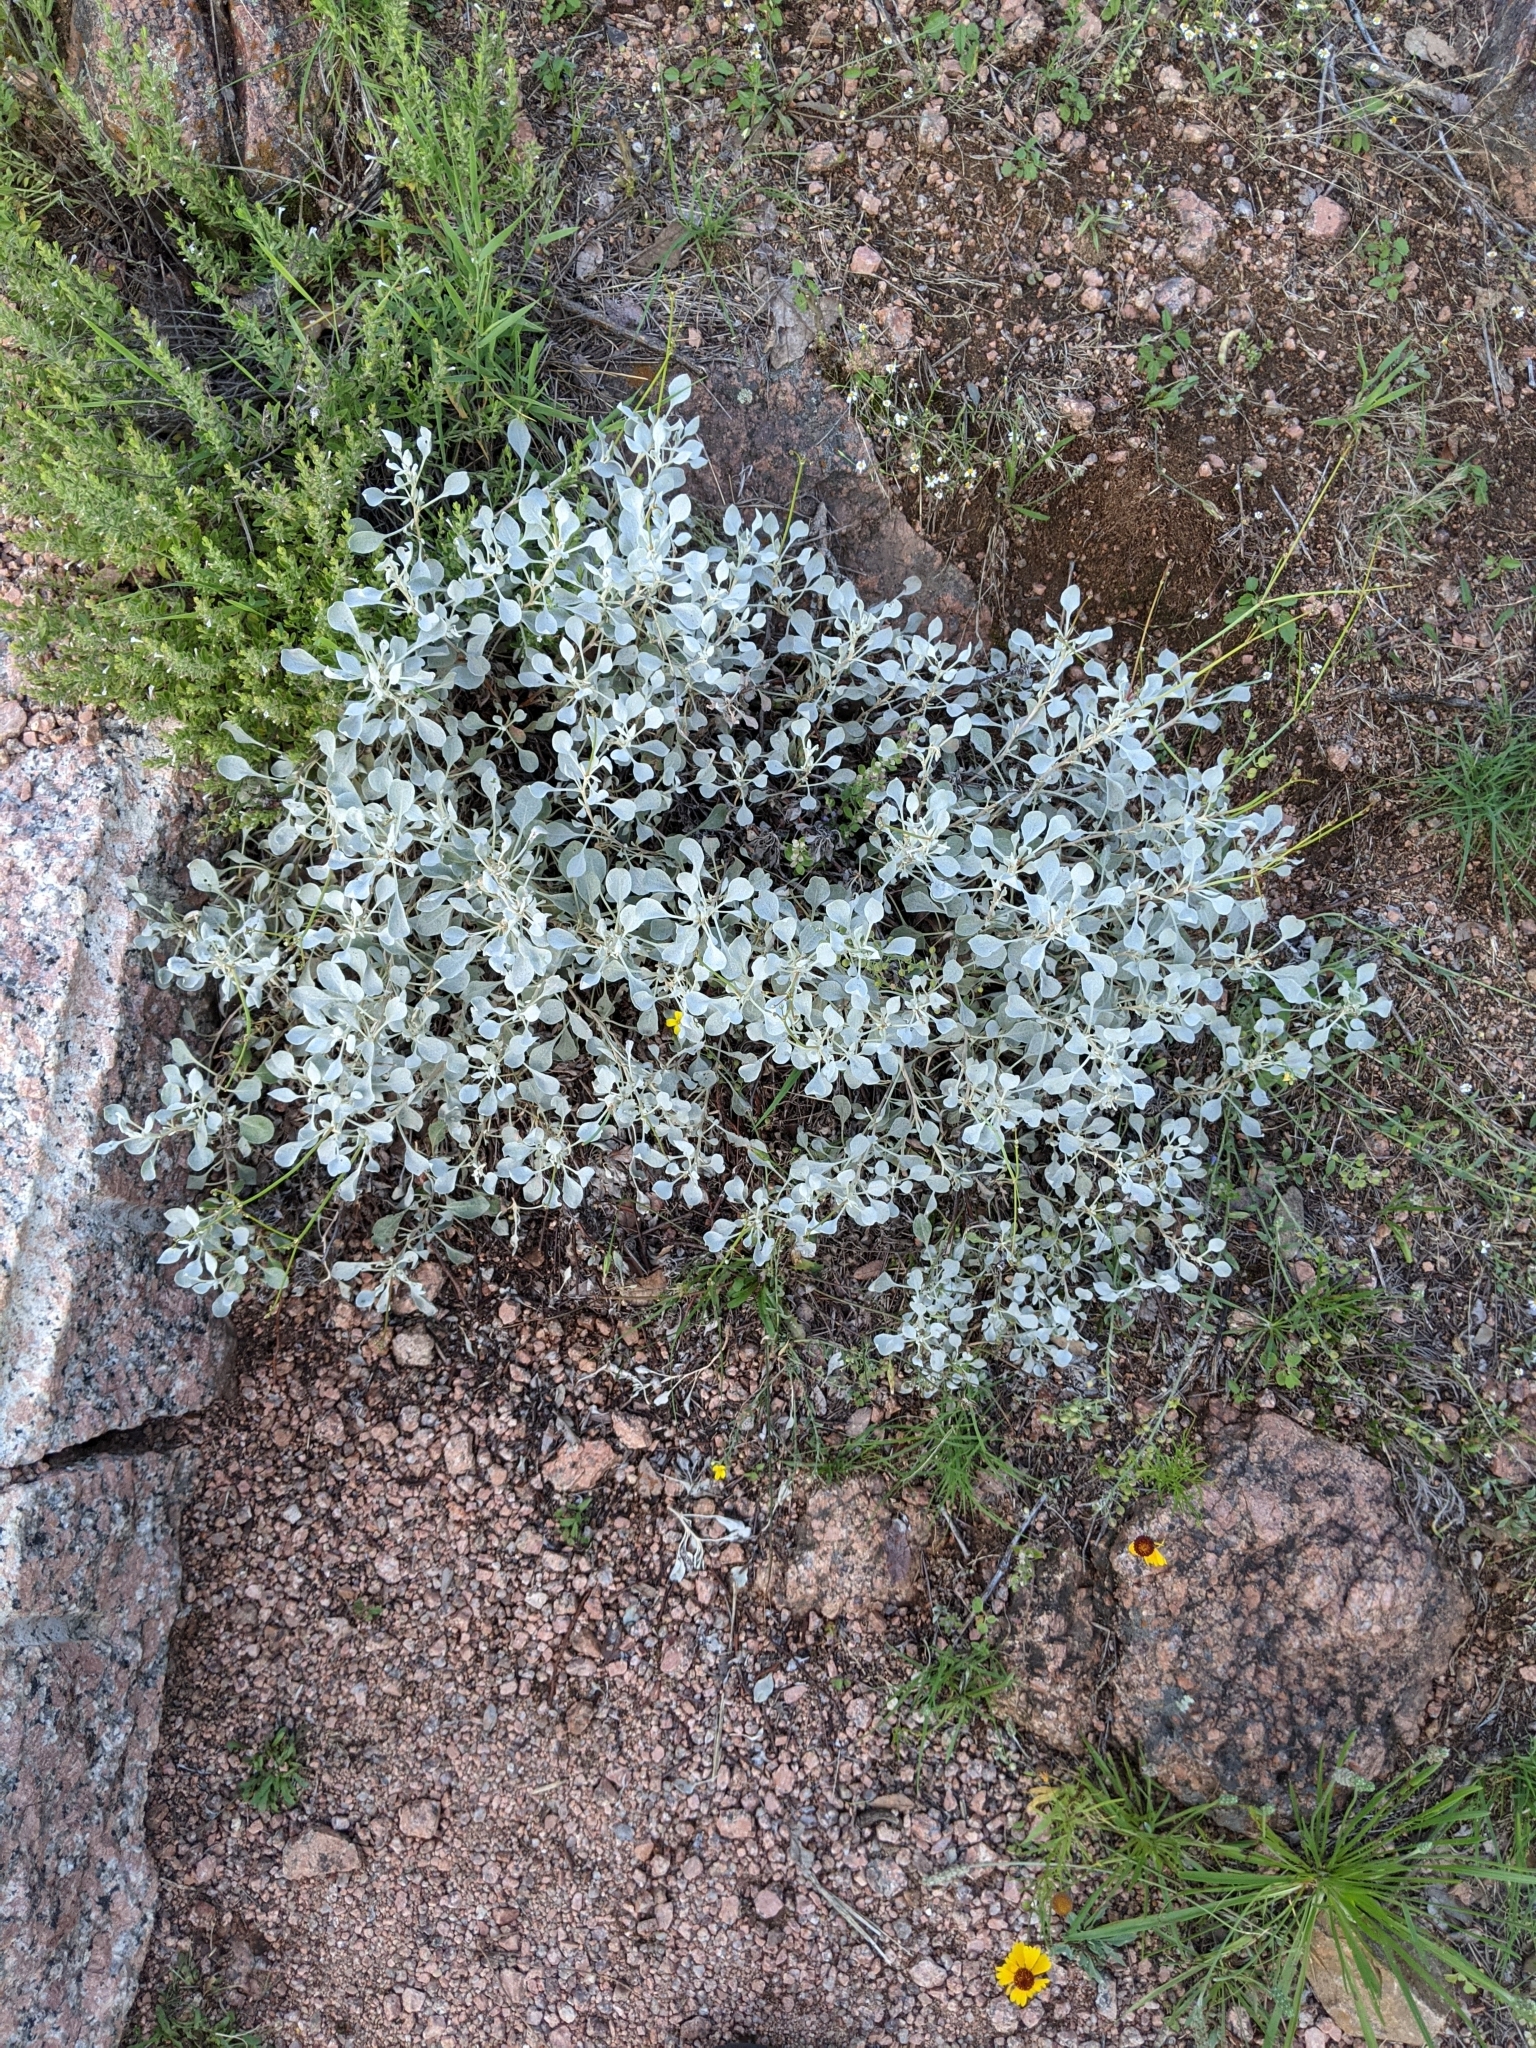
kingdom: Plantae
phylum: Tracheophyta
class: Magnoliopsida
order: Caryophyllales
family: Polygonaceae
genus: Eriogonum
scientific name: Eriogonum graniticum
